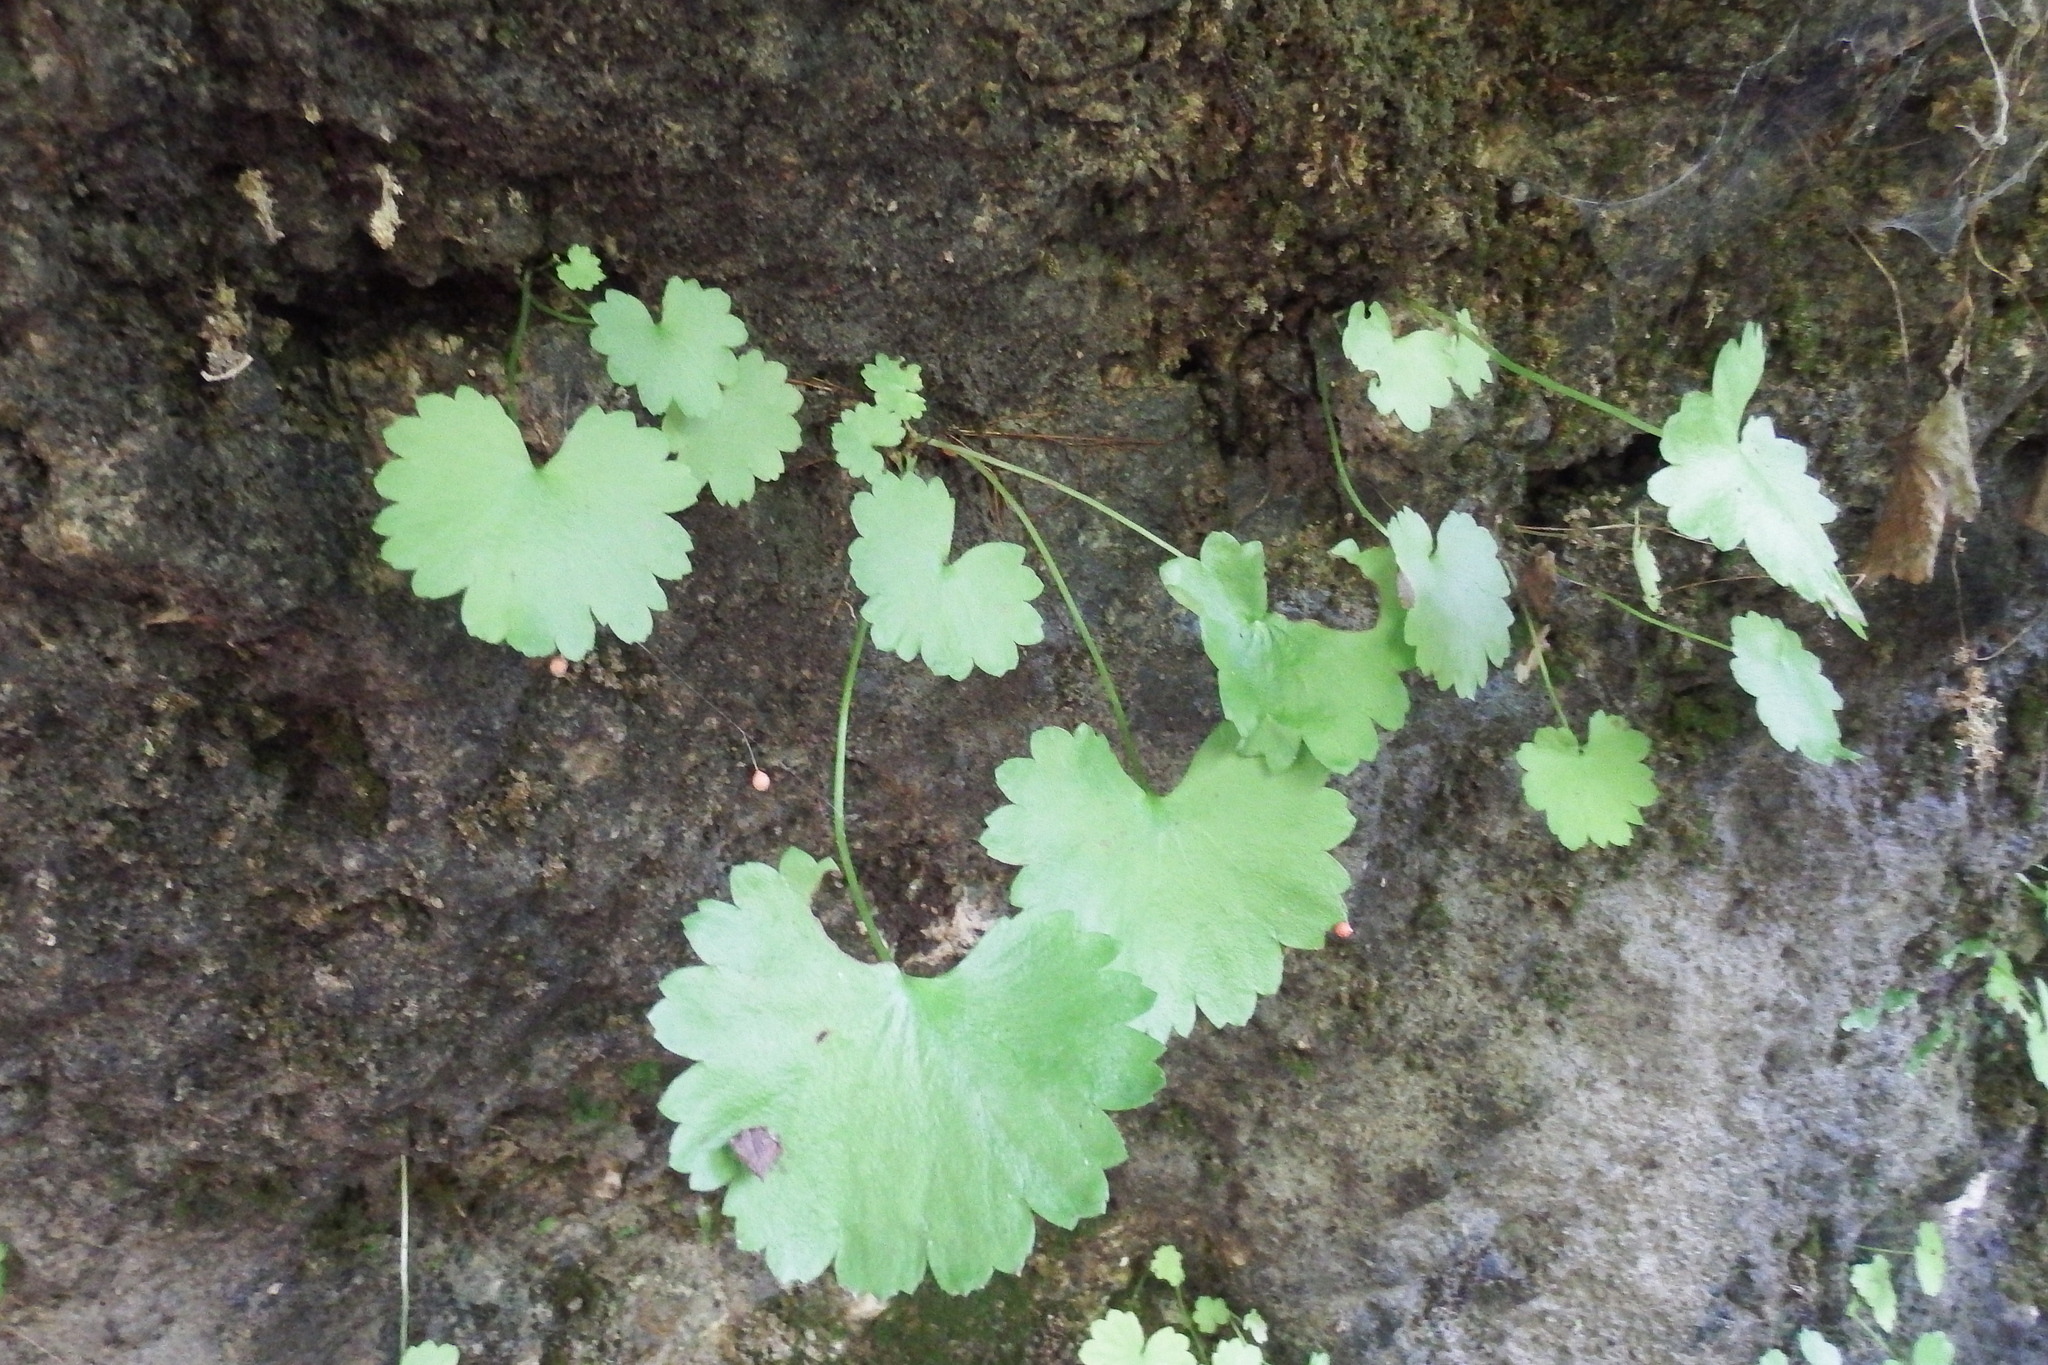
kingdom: Plantae
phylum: Tracheophyta
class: Magnoliopsida
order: Saxifragales
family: Saxifragaceae
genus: Sullivantia
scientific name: Sullivantia sullivantii
